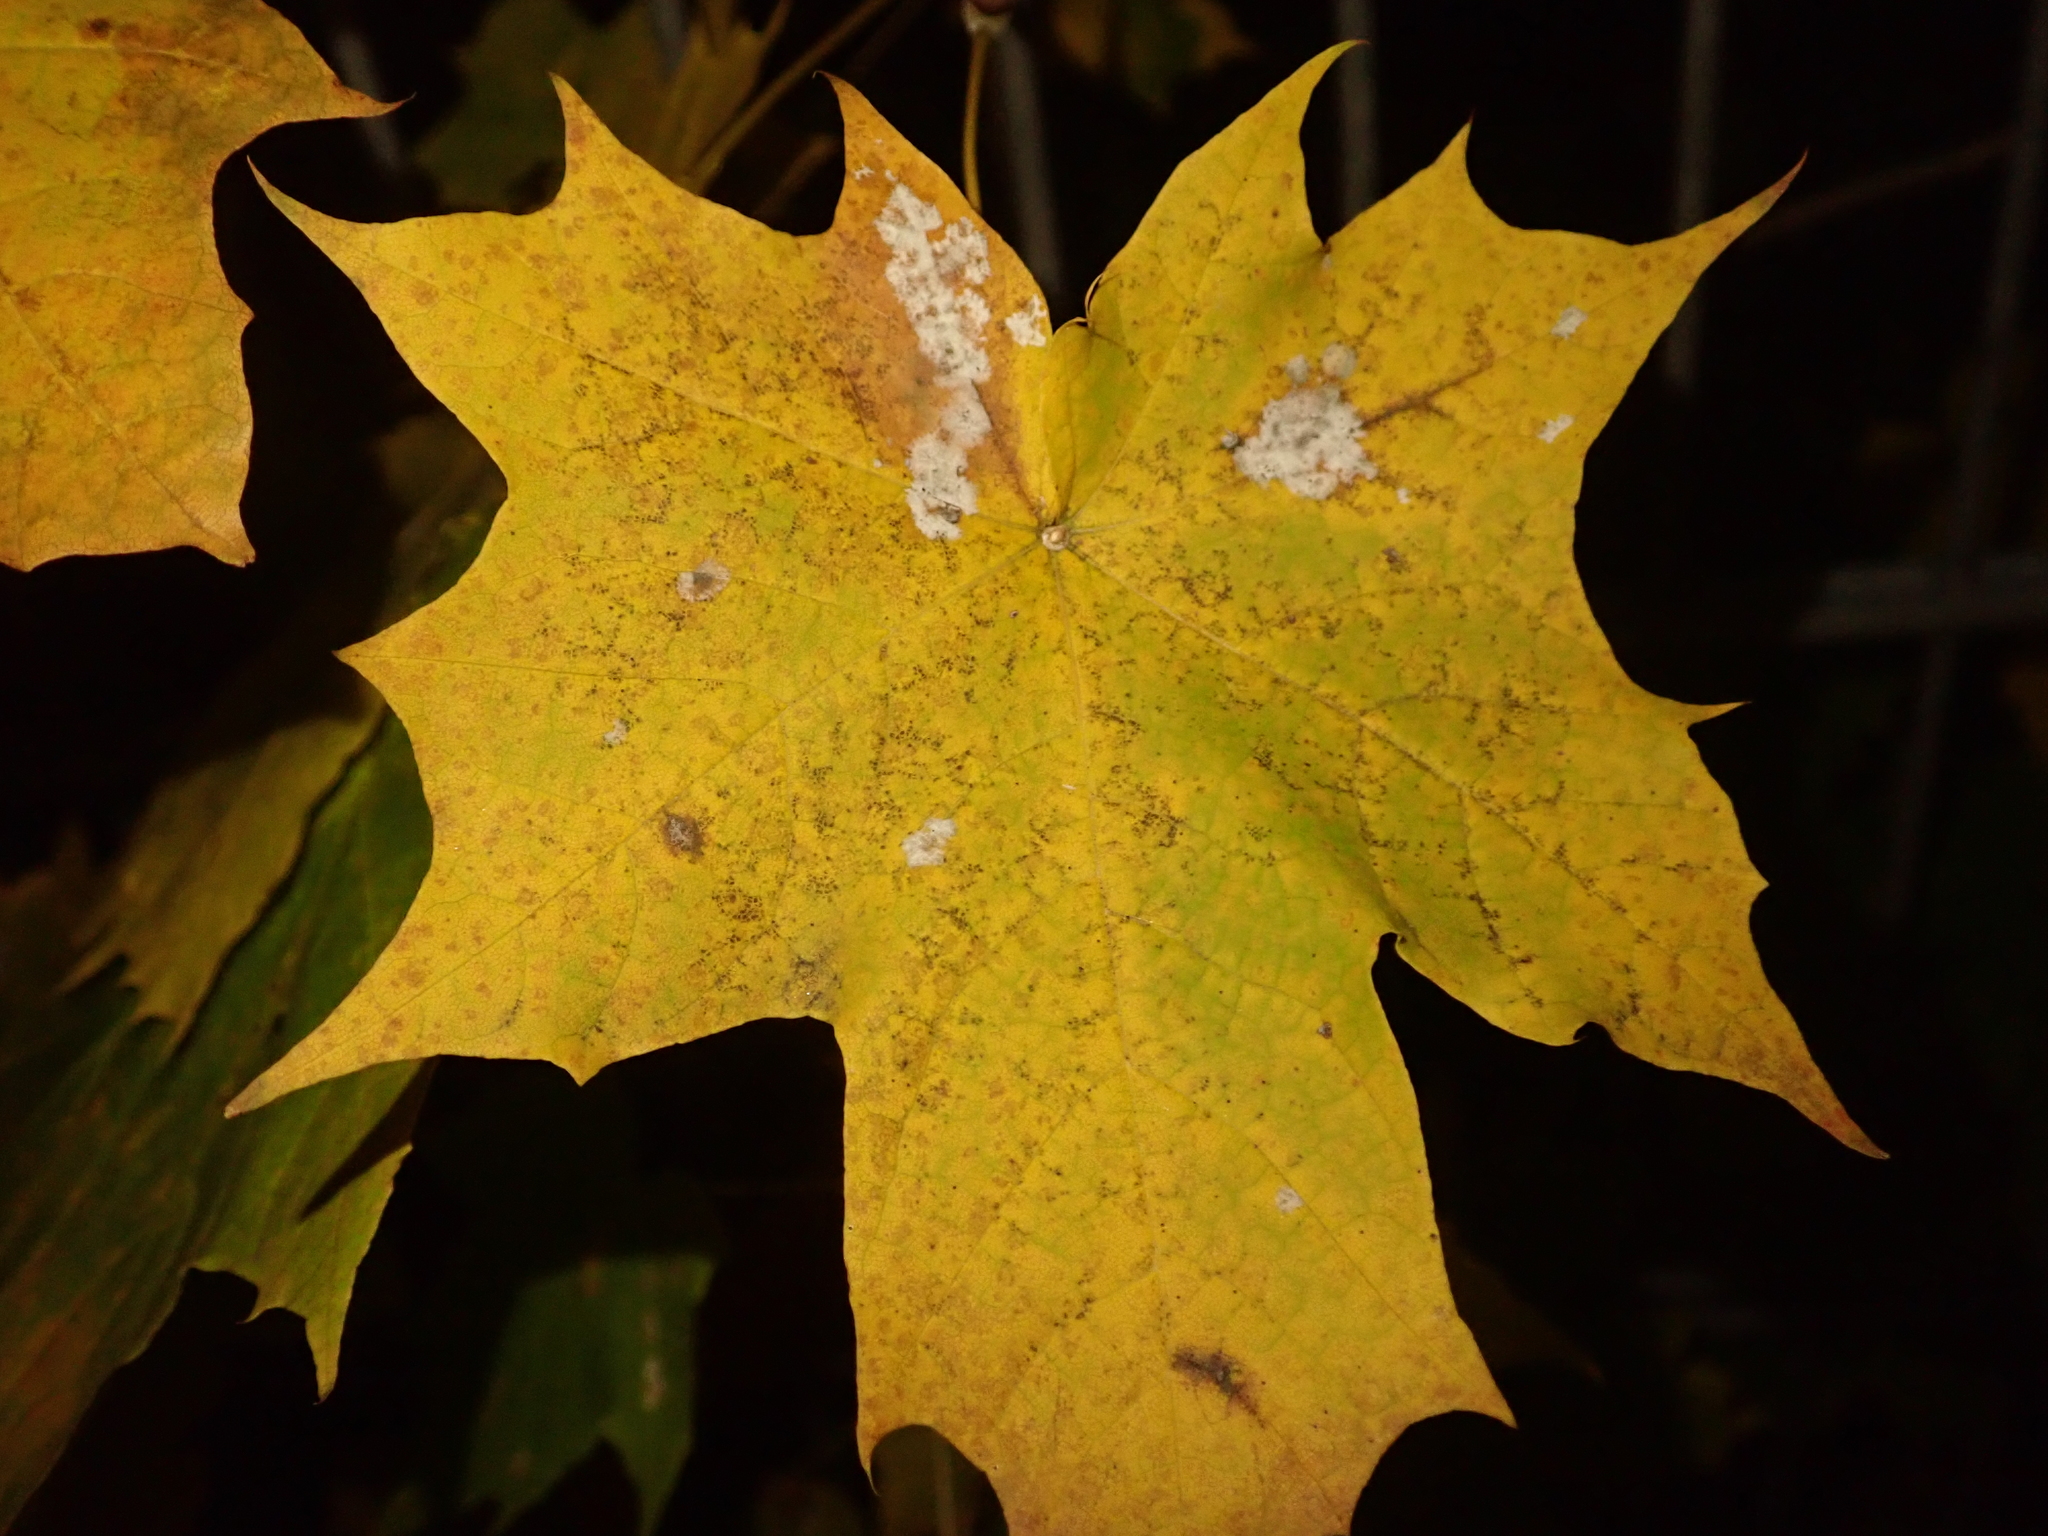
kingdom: Plantae
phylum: Tracheophyta
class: Magnoliopsida
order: Sapindales
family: Sapindaceae
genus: Acer
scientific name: Acer platanoides
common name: Norway maple
